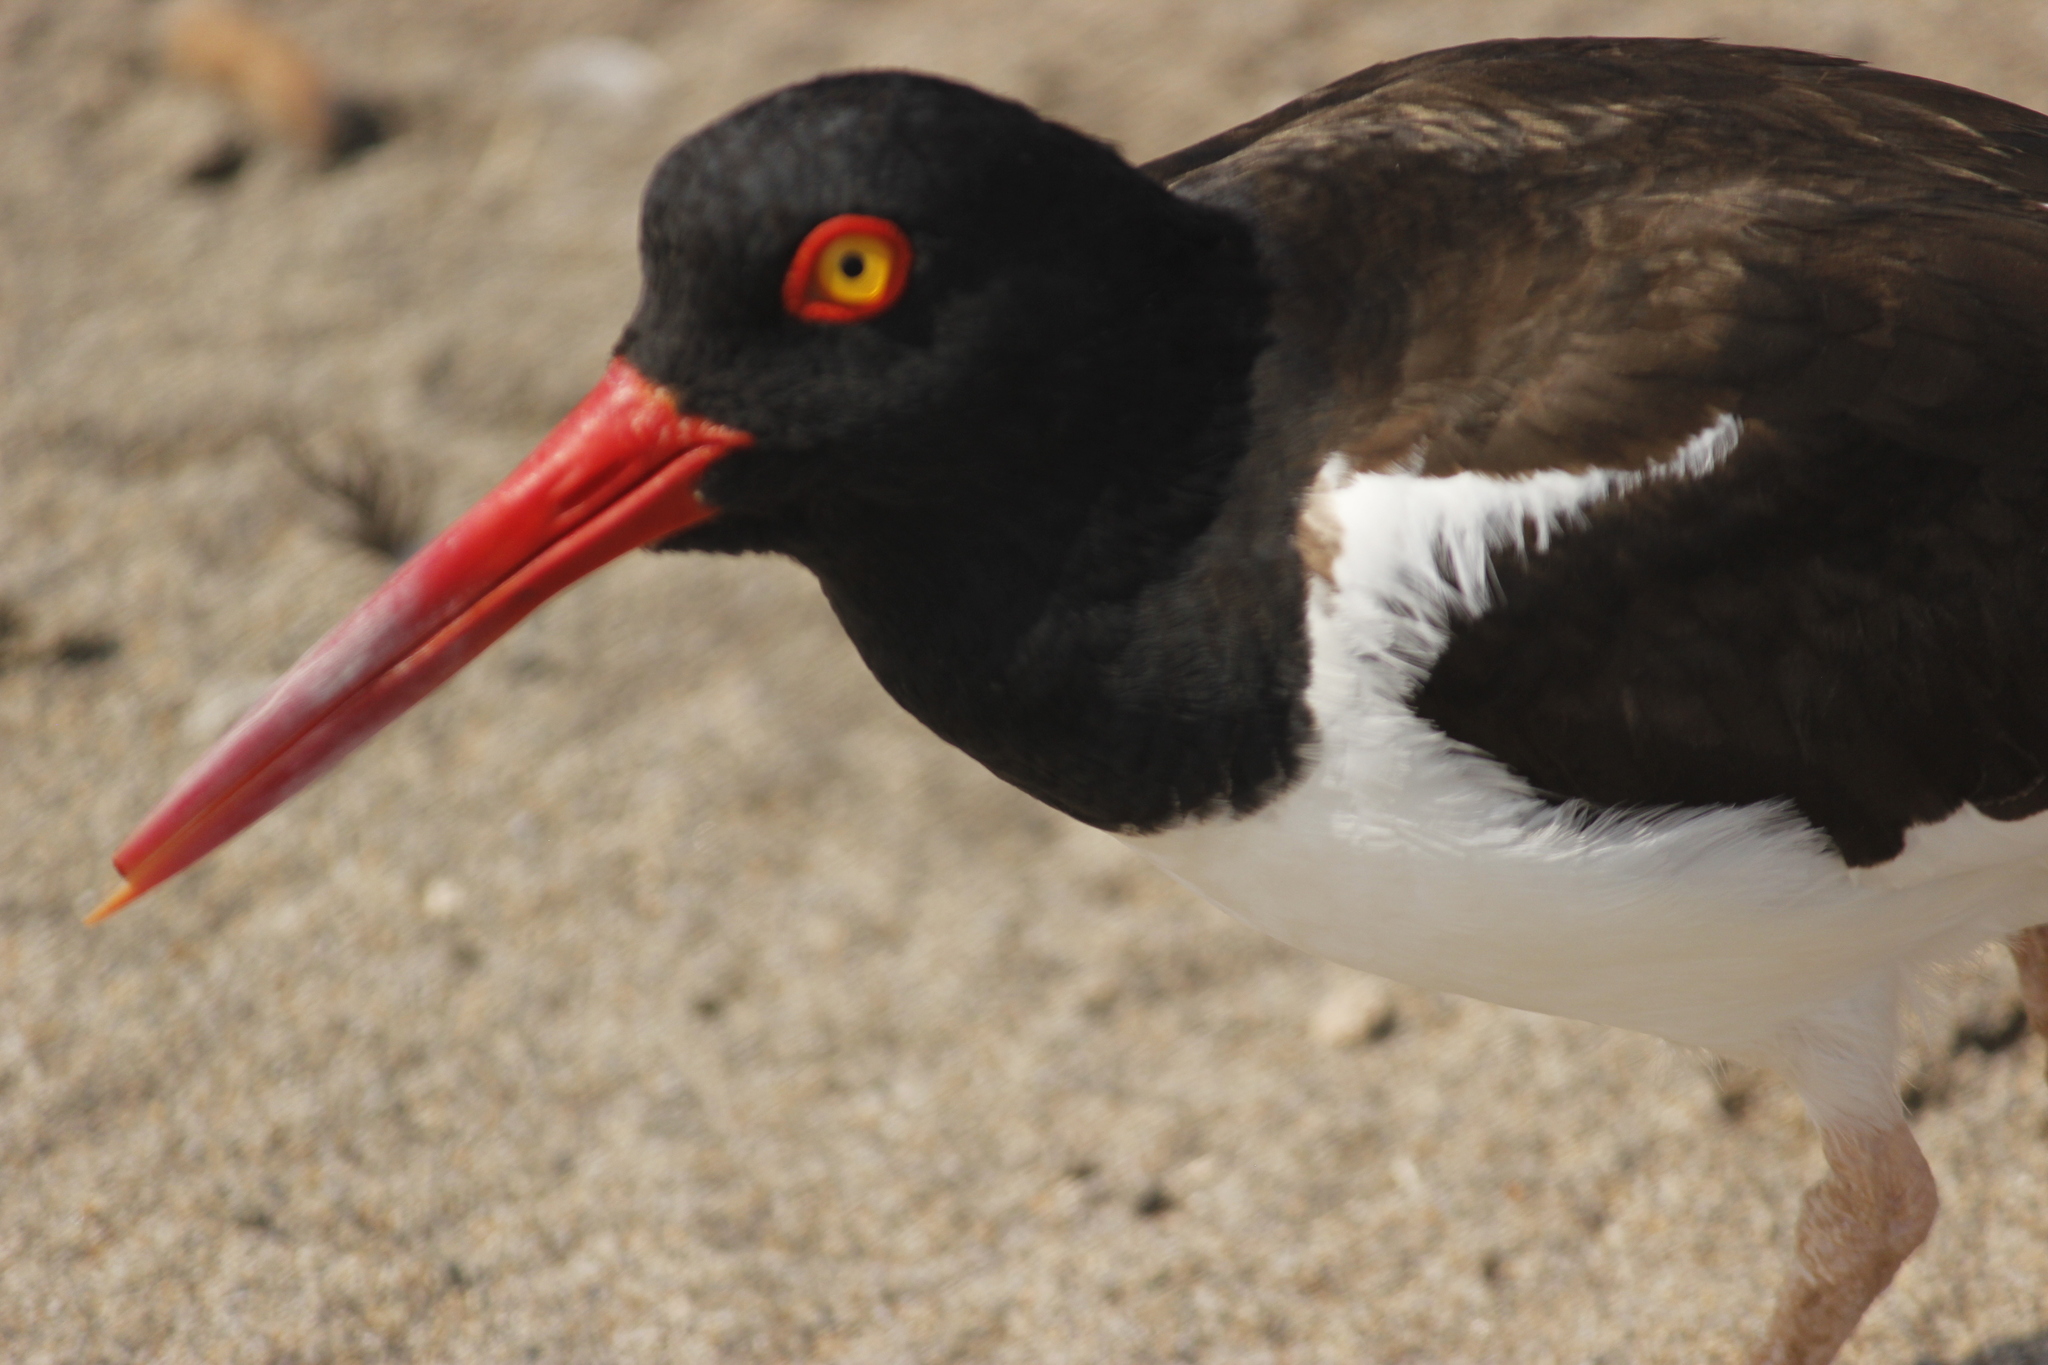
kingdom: Animalia
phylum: Chordata
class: Aves
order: Charadriiformes
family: Haematopodidae
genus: Haematopus
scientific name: Haematopus palliatus
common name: American oystercatcher
